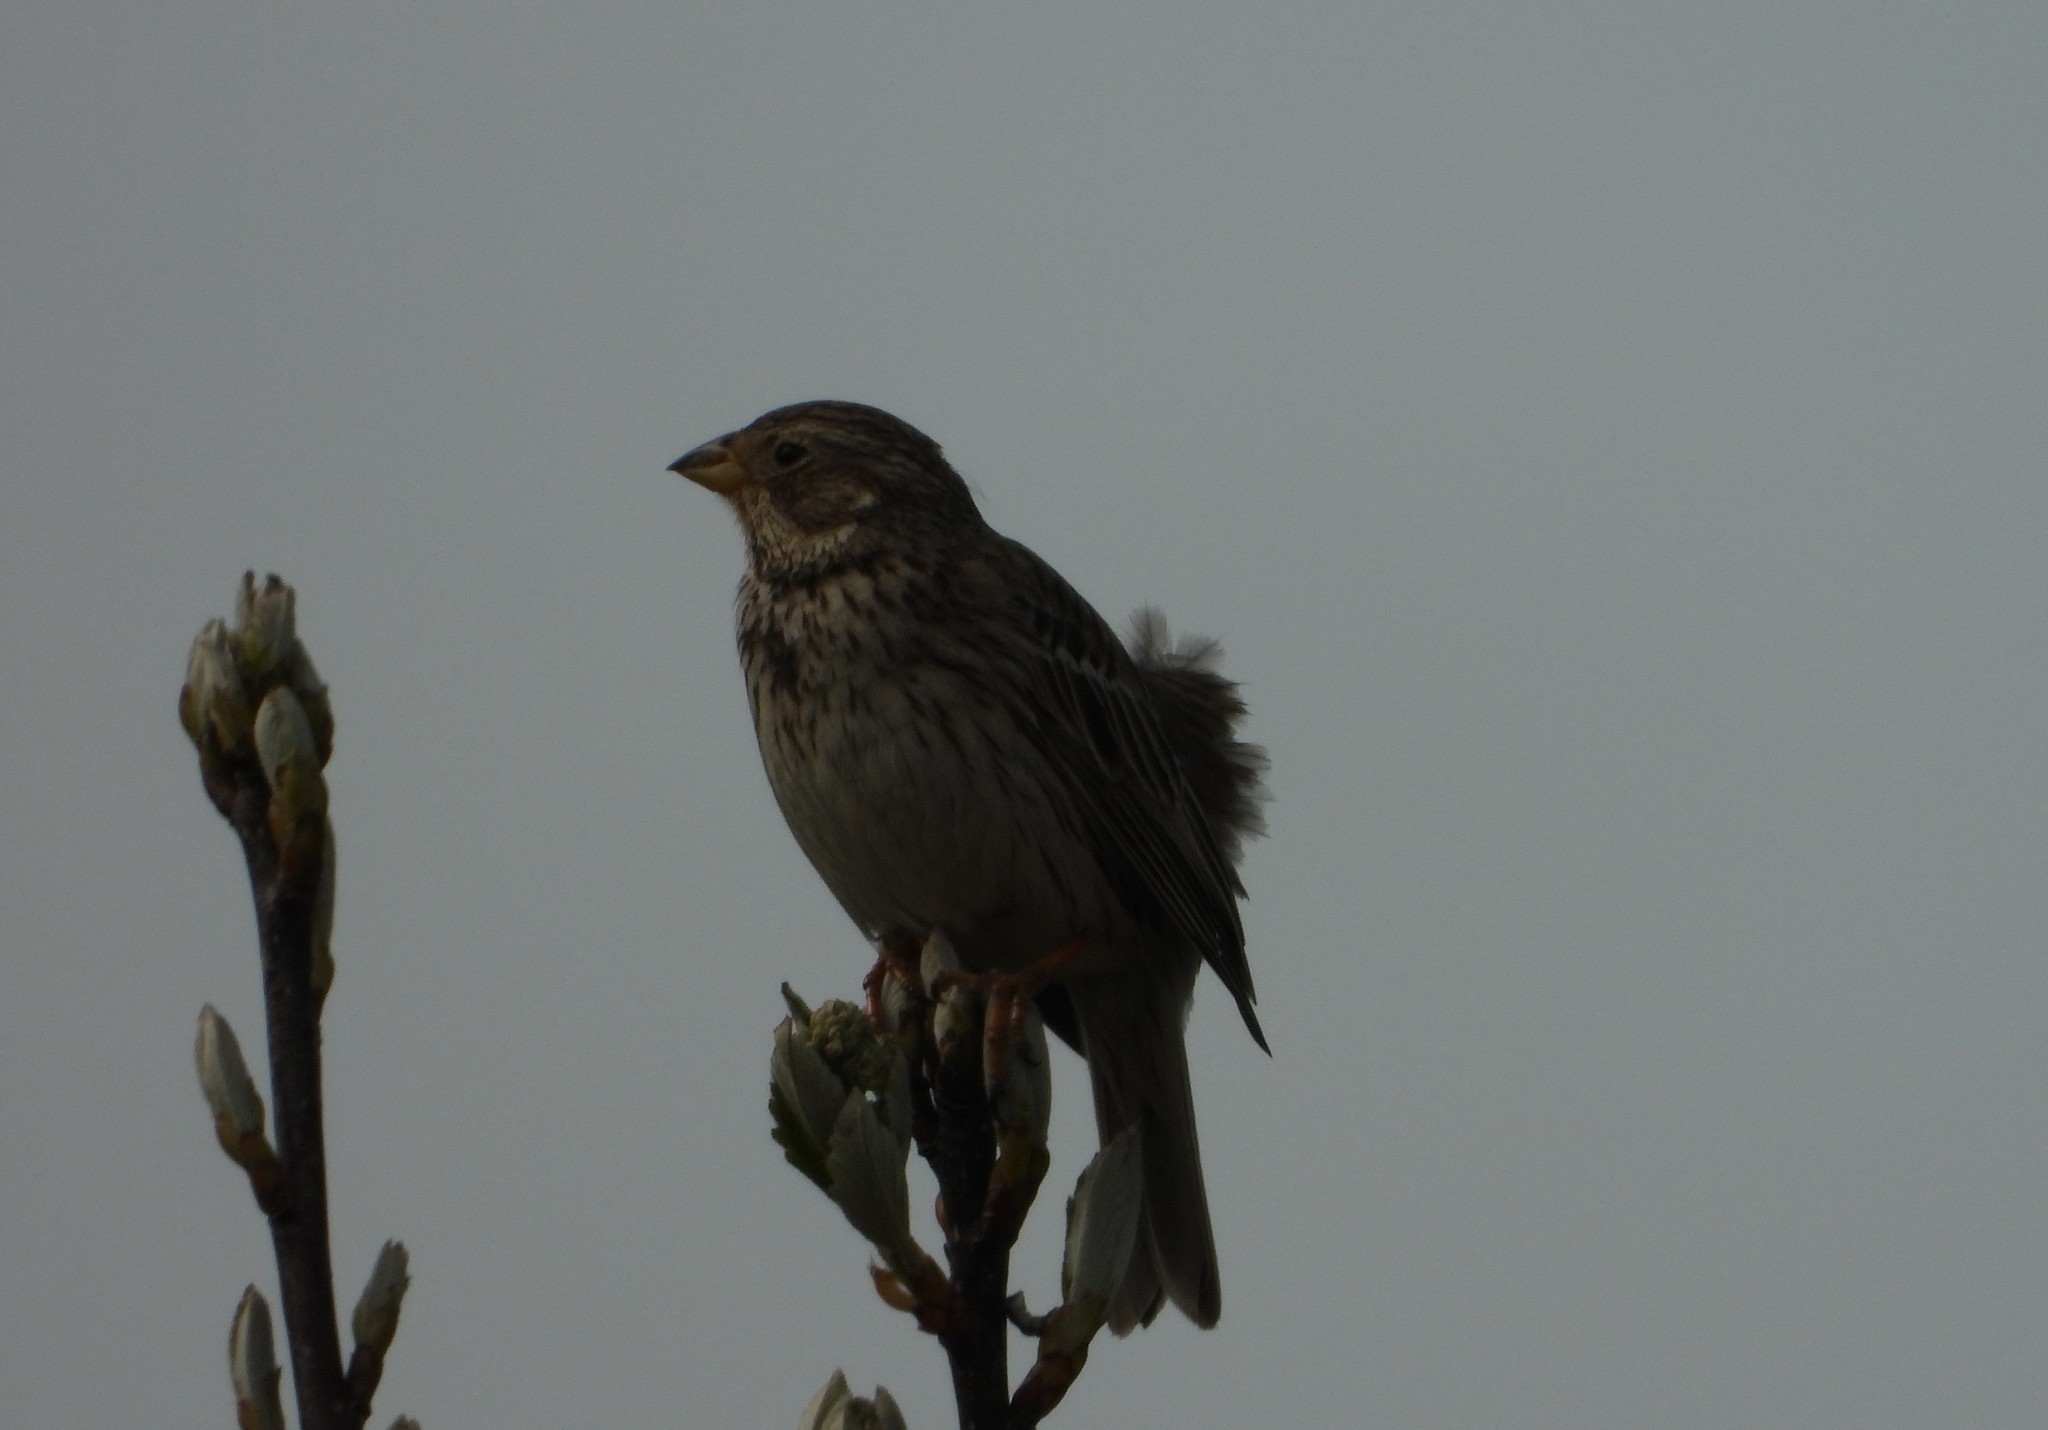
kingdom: Animalia
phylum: Chordata
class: Aves
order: Passeriformes
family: Emberizidae
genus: Emberiza
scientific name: Emberiza calandra
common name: Corn bunting
